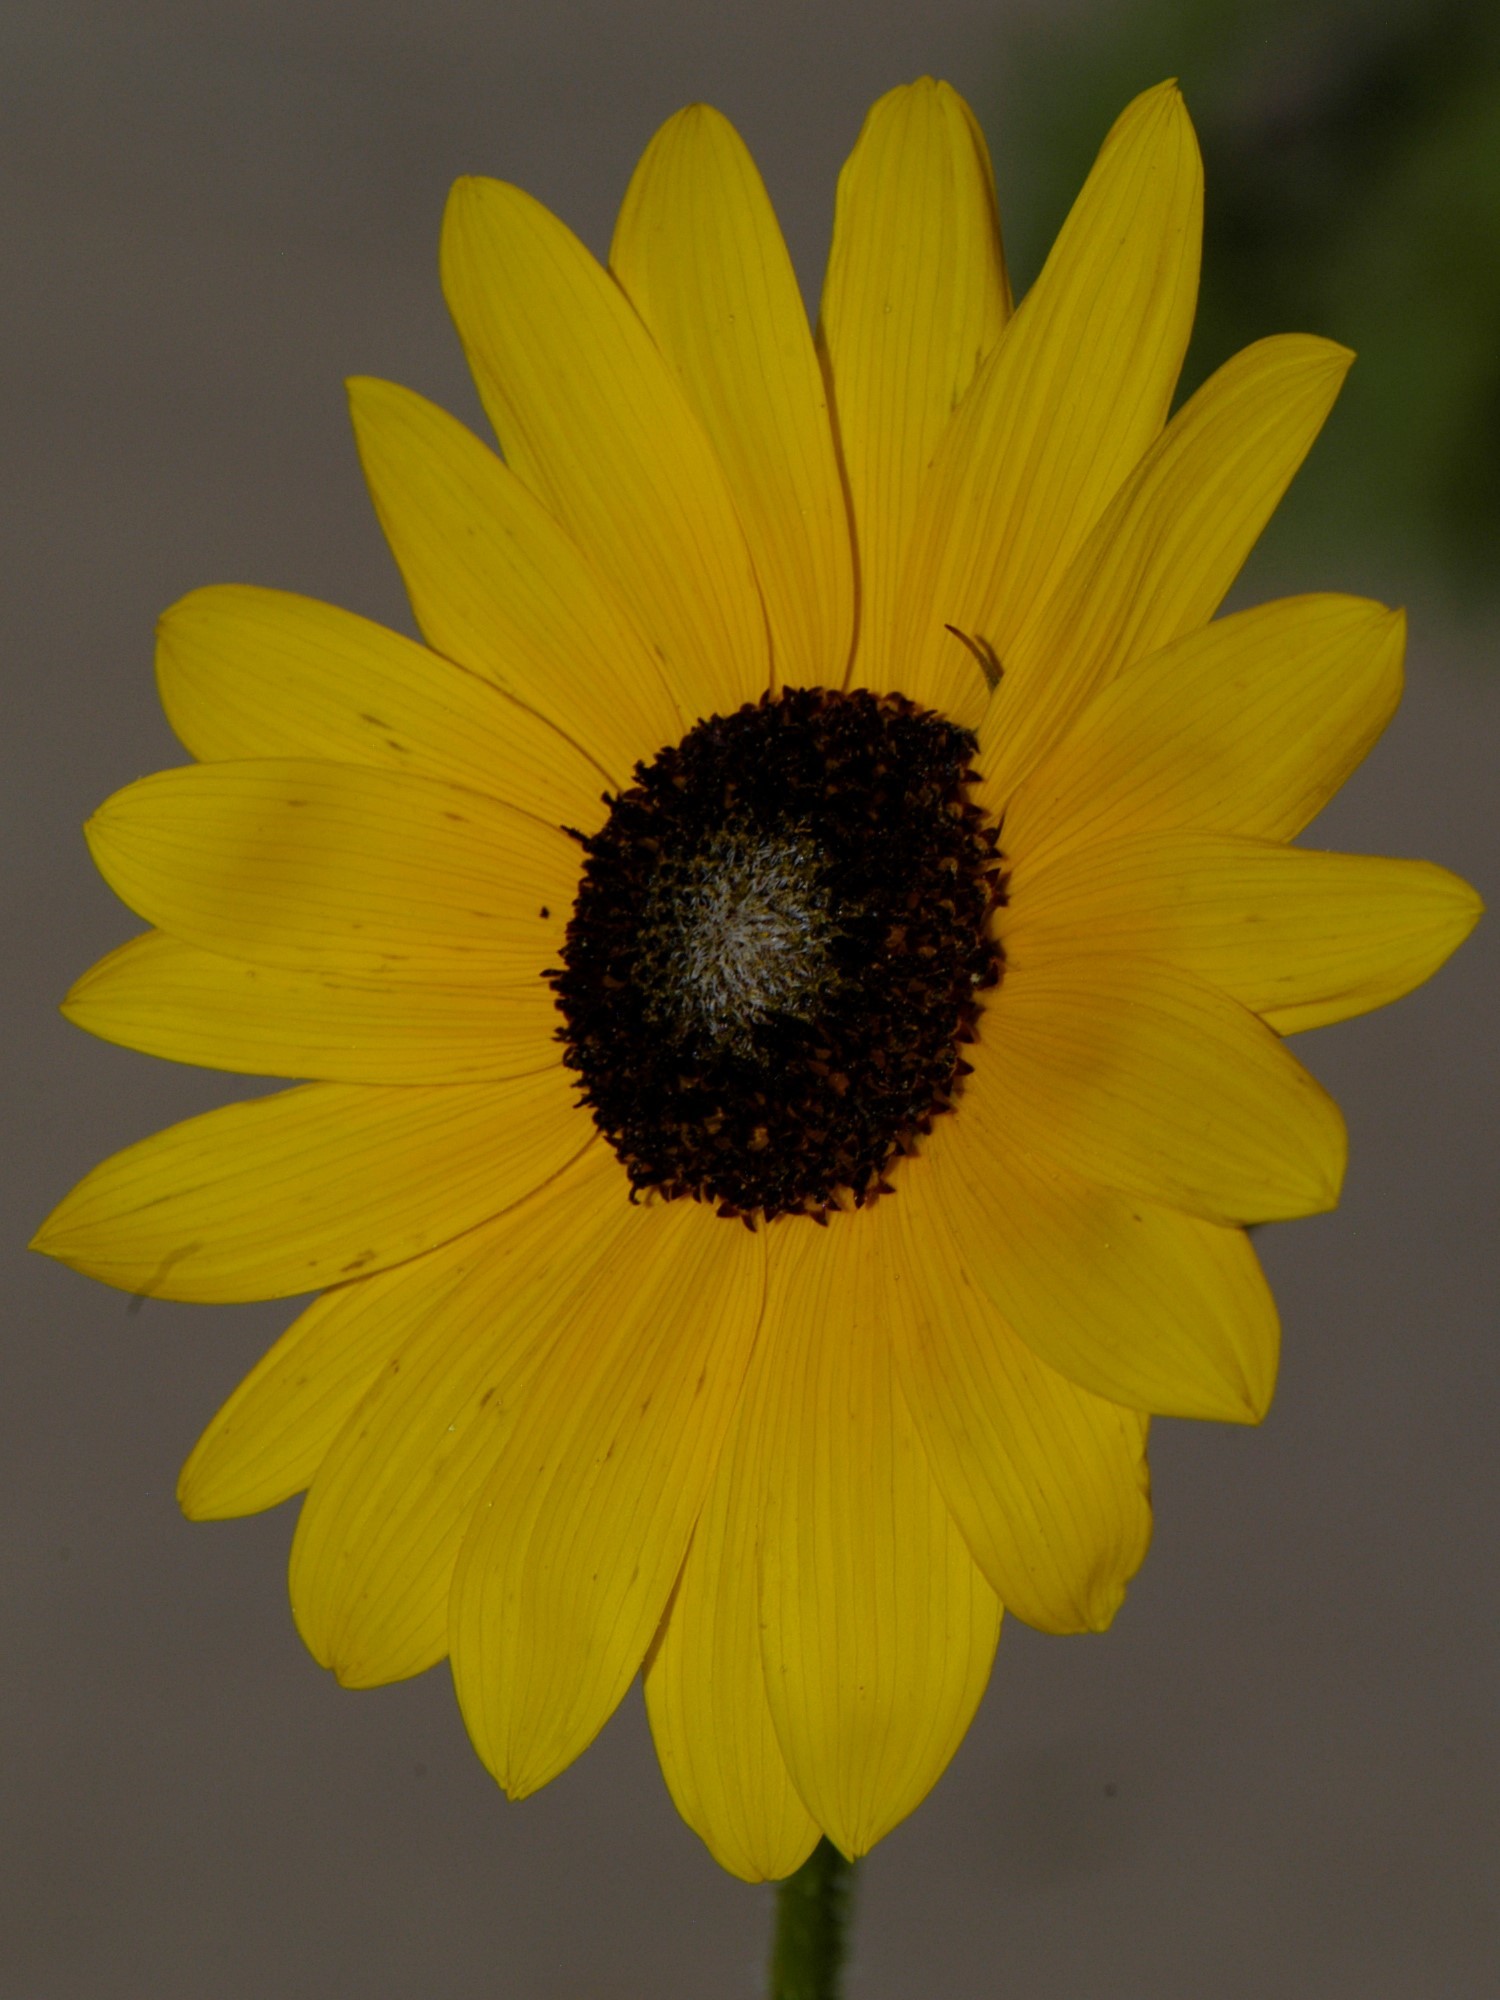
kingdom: Plantae
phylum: Tracheophyta
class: Magnoliopsida
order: Asterales
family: Asteraceae
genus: Helianthus
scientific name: Helianthus petiolaris
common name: Lesser sunflower
